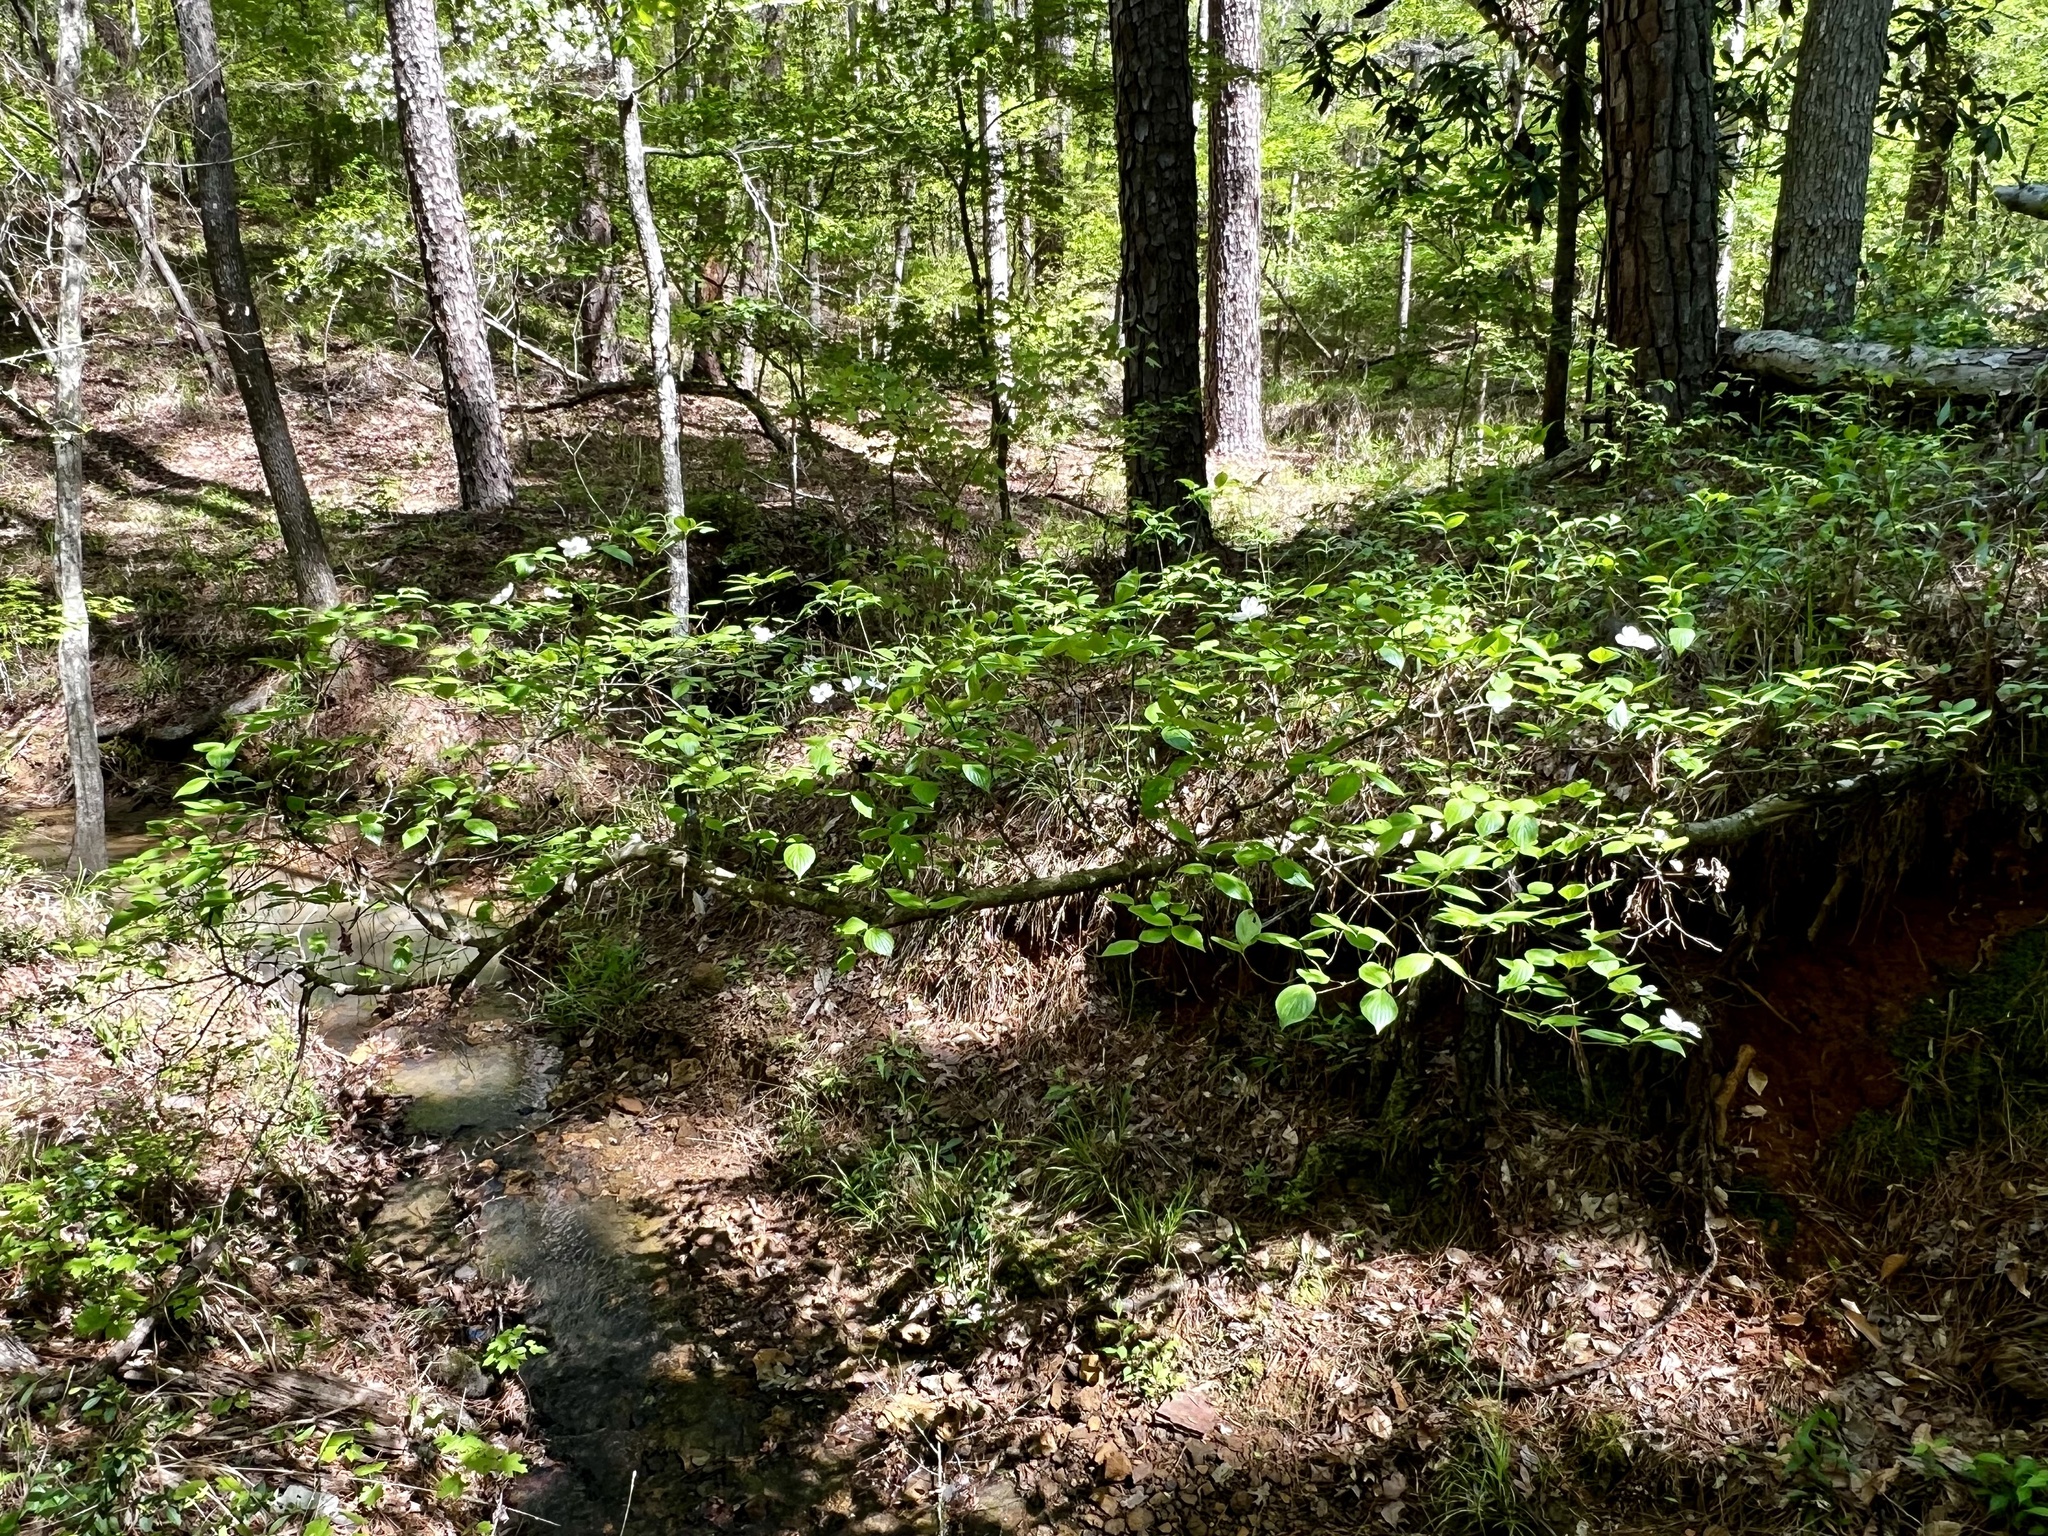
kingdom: Plantae
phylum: Tracheophyta
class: Magnoliopsida
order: Cornales
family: Cornaceae
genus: Cornus
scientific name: Cornus florida
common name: Flowering dogwood
